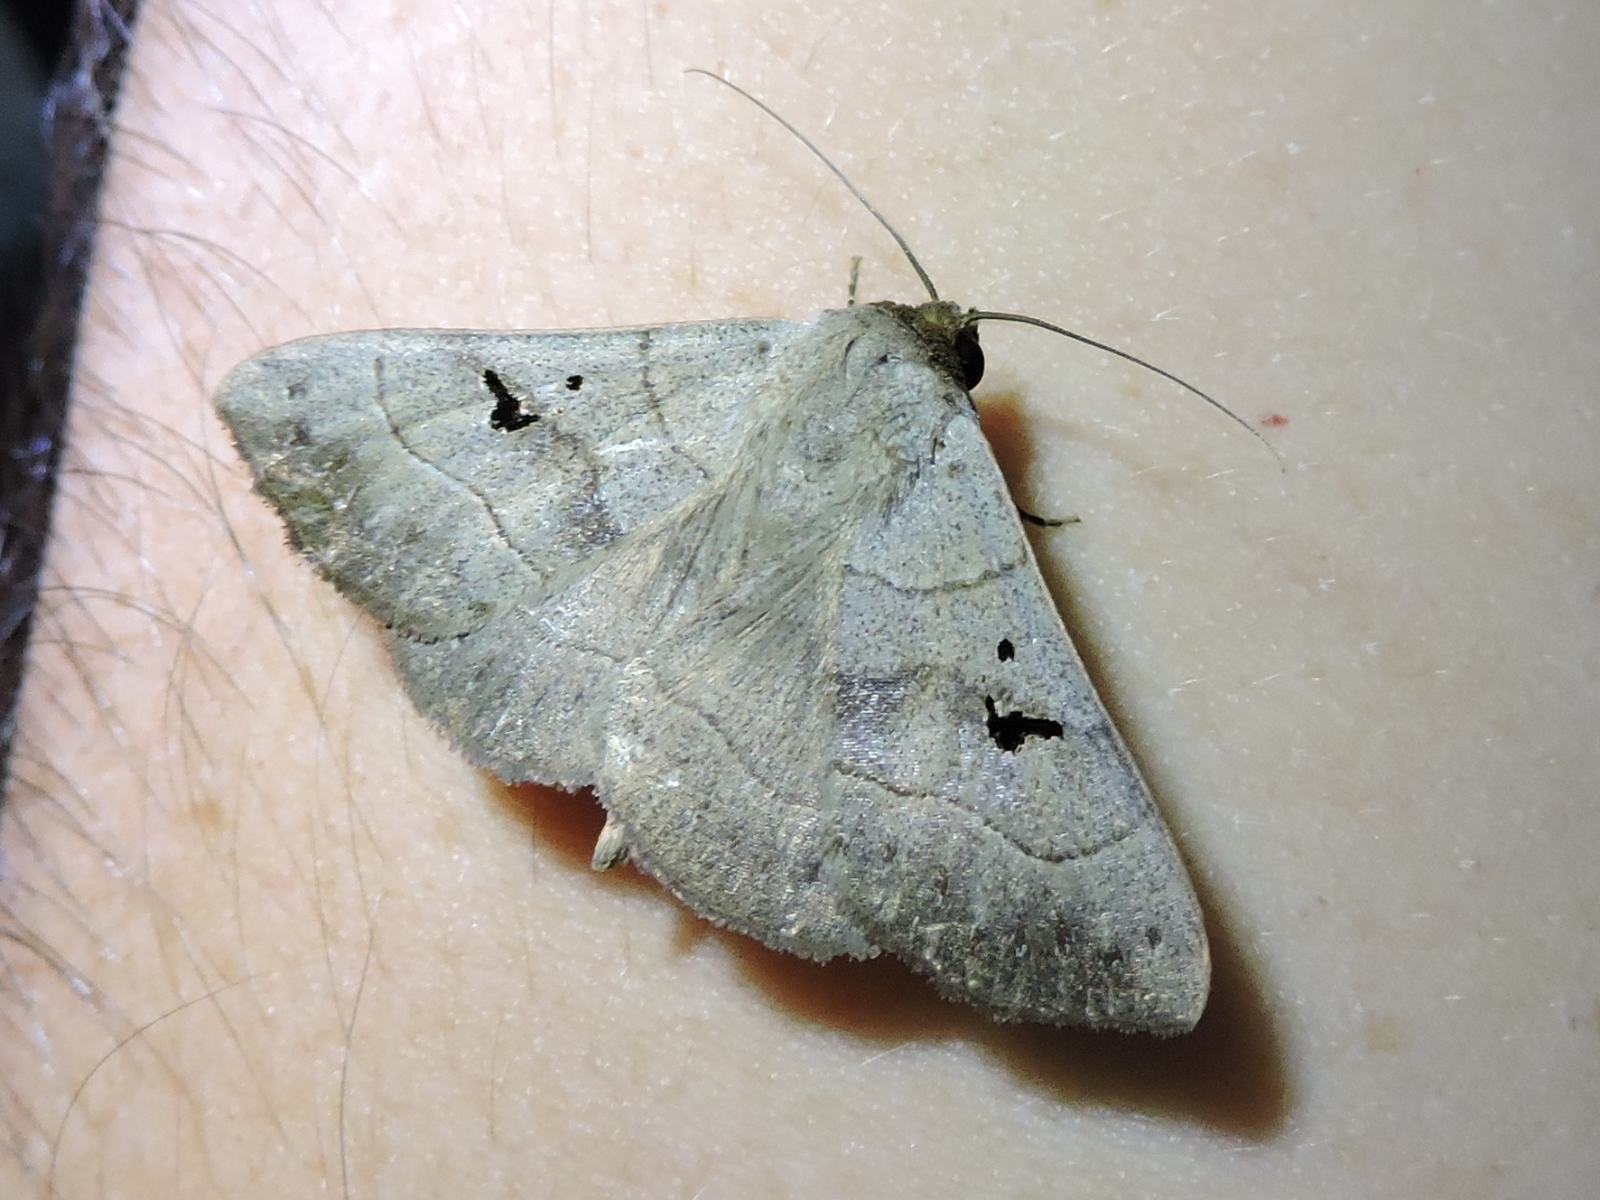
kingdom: Animalia
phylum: Arthropoda
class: Insecta
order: Lepidoptera
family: Erebidae
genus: Panopoda
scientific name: Panopoda carneicosta
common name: Brown panopoda moth
